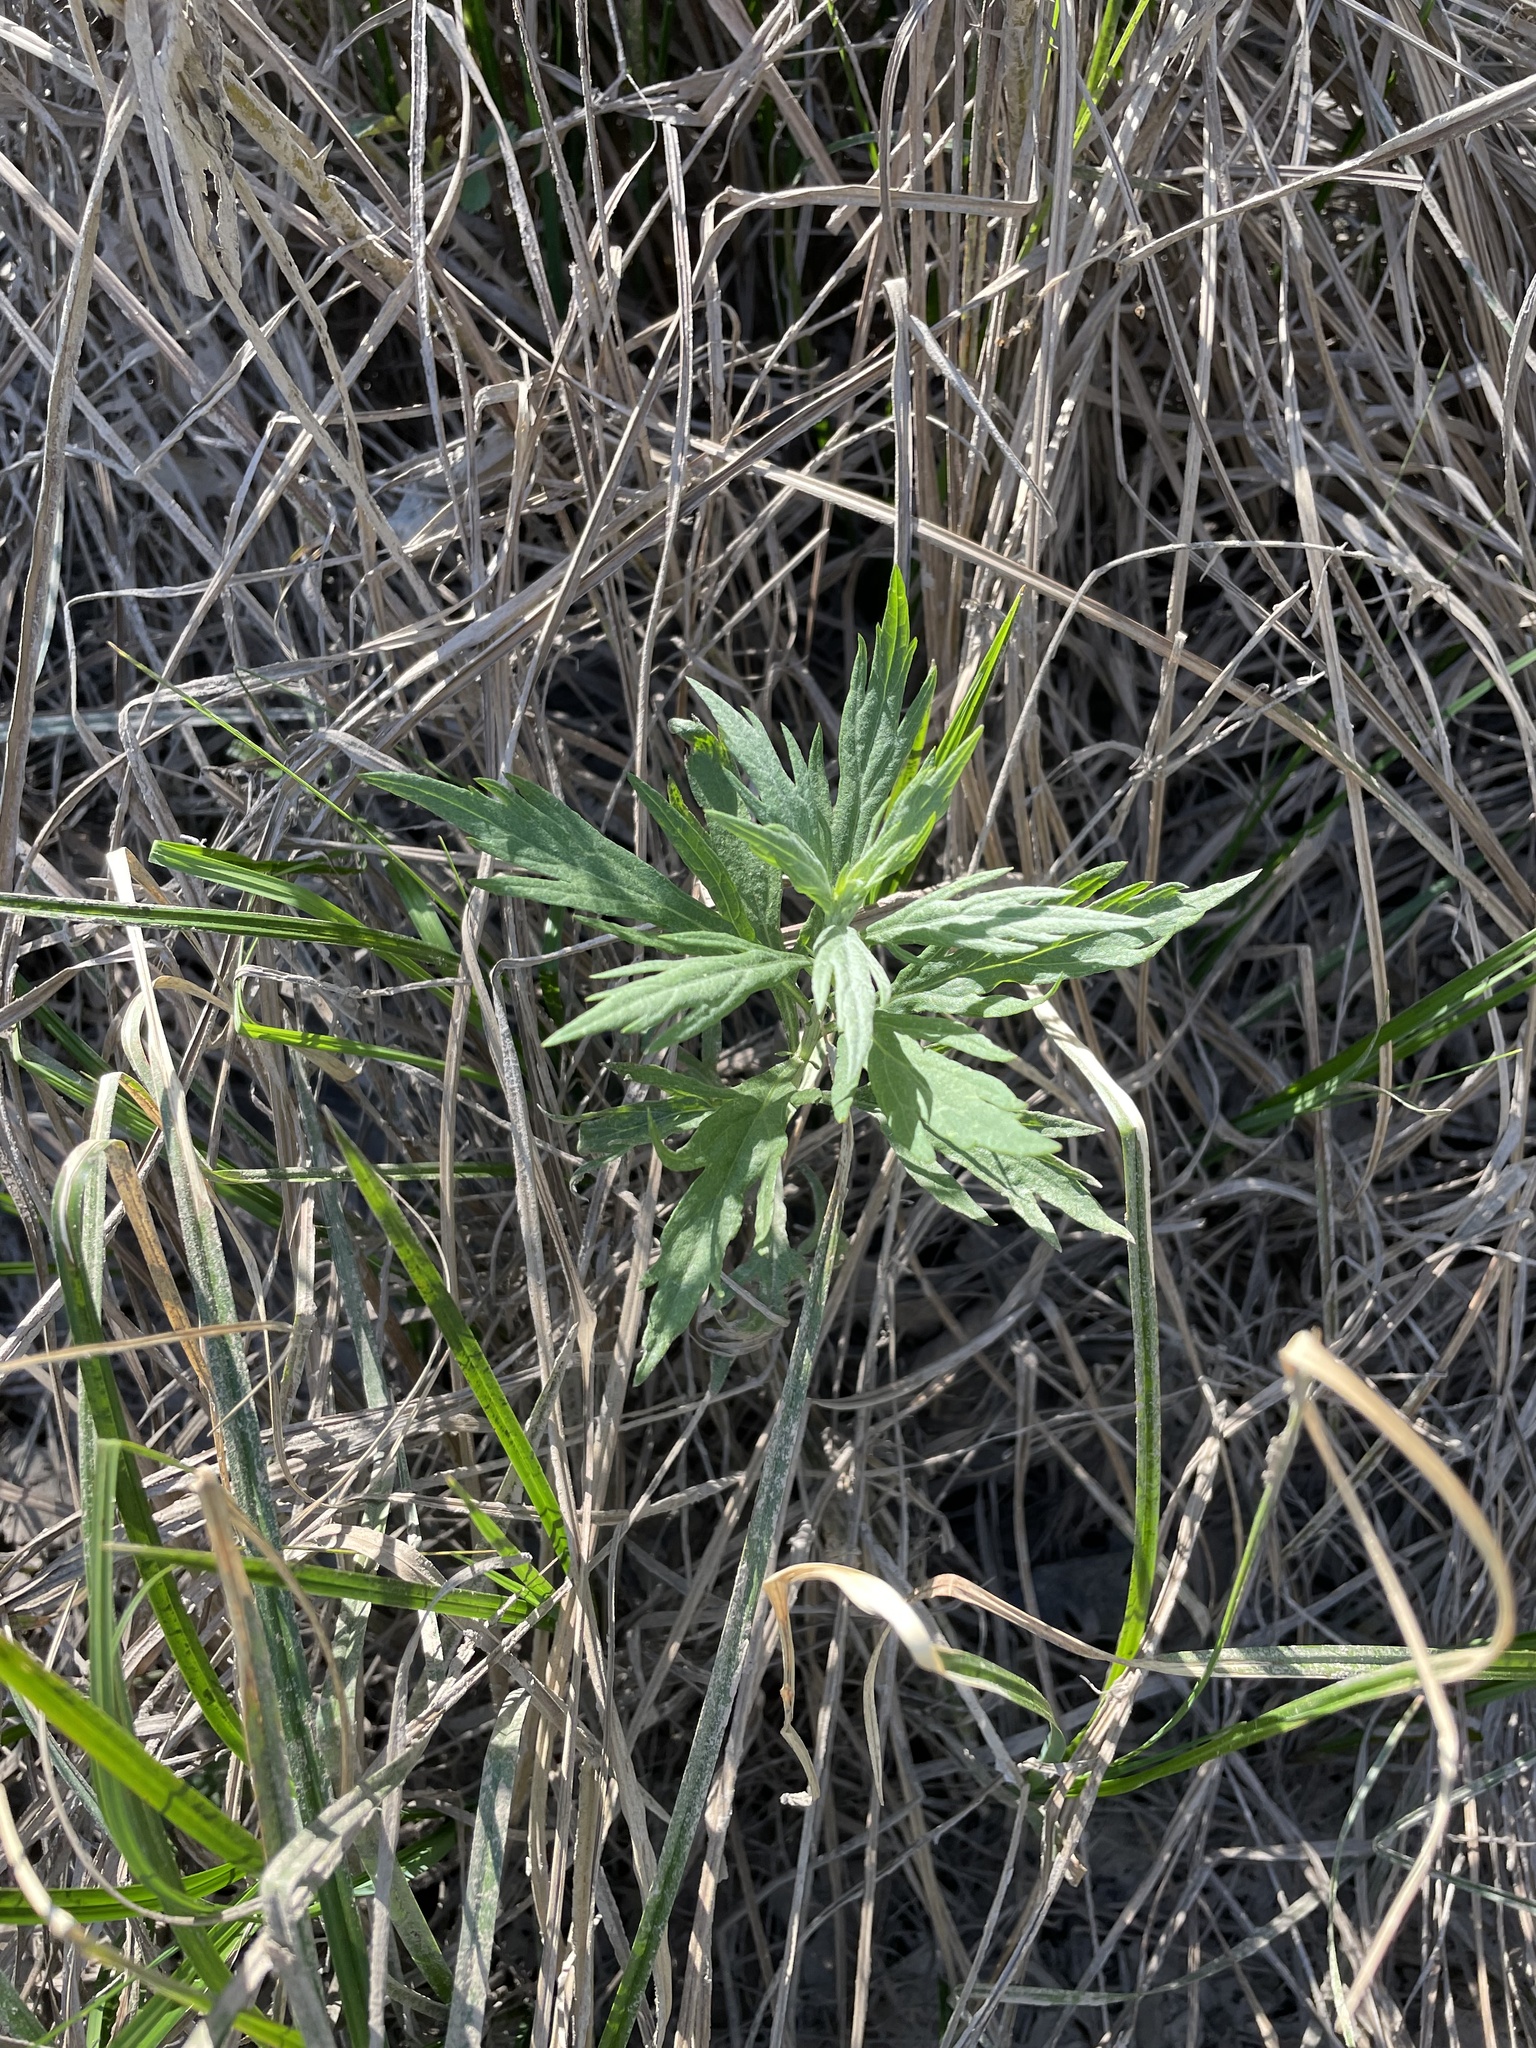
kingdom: Plantae
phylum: Tracheophyta
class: Magnoliopsida
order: Asterales
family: Asteraceae
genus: Artemisia
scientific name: Artemisia douglasiana
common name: Northwest mugwort
